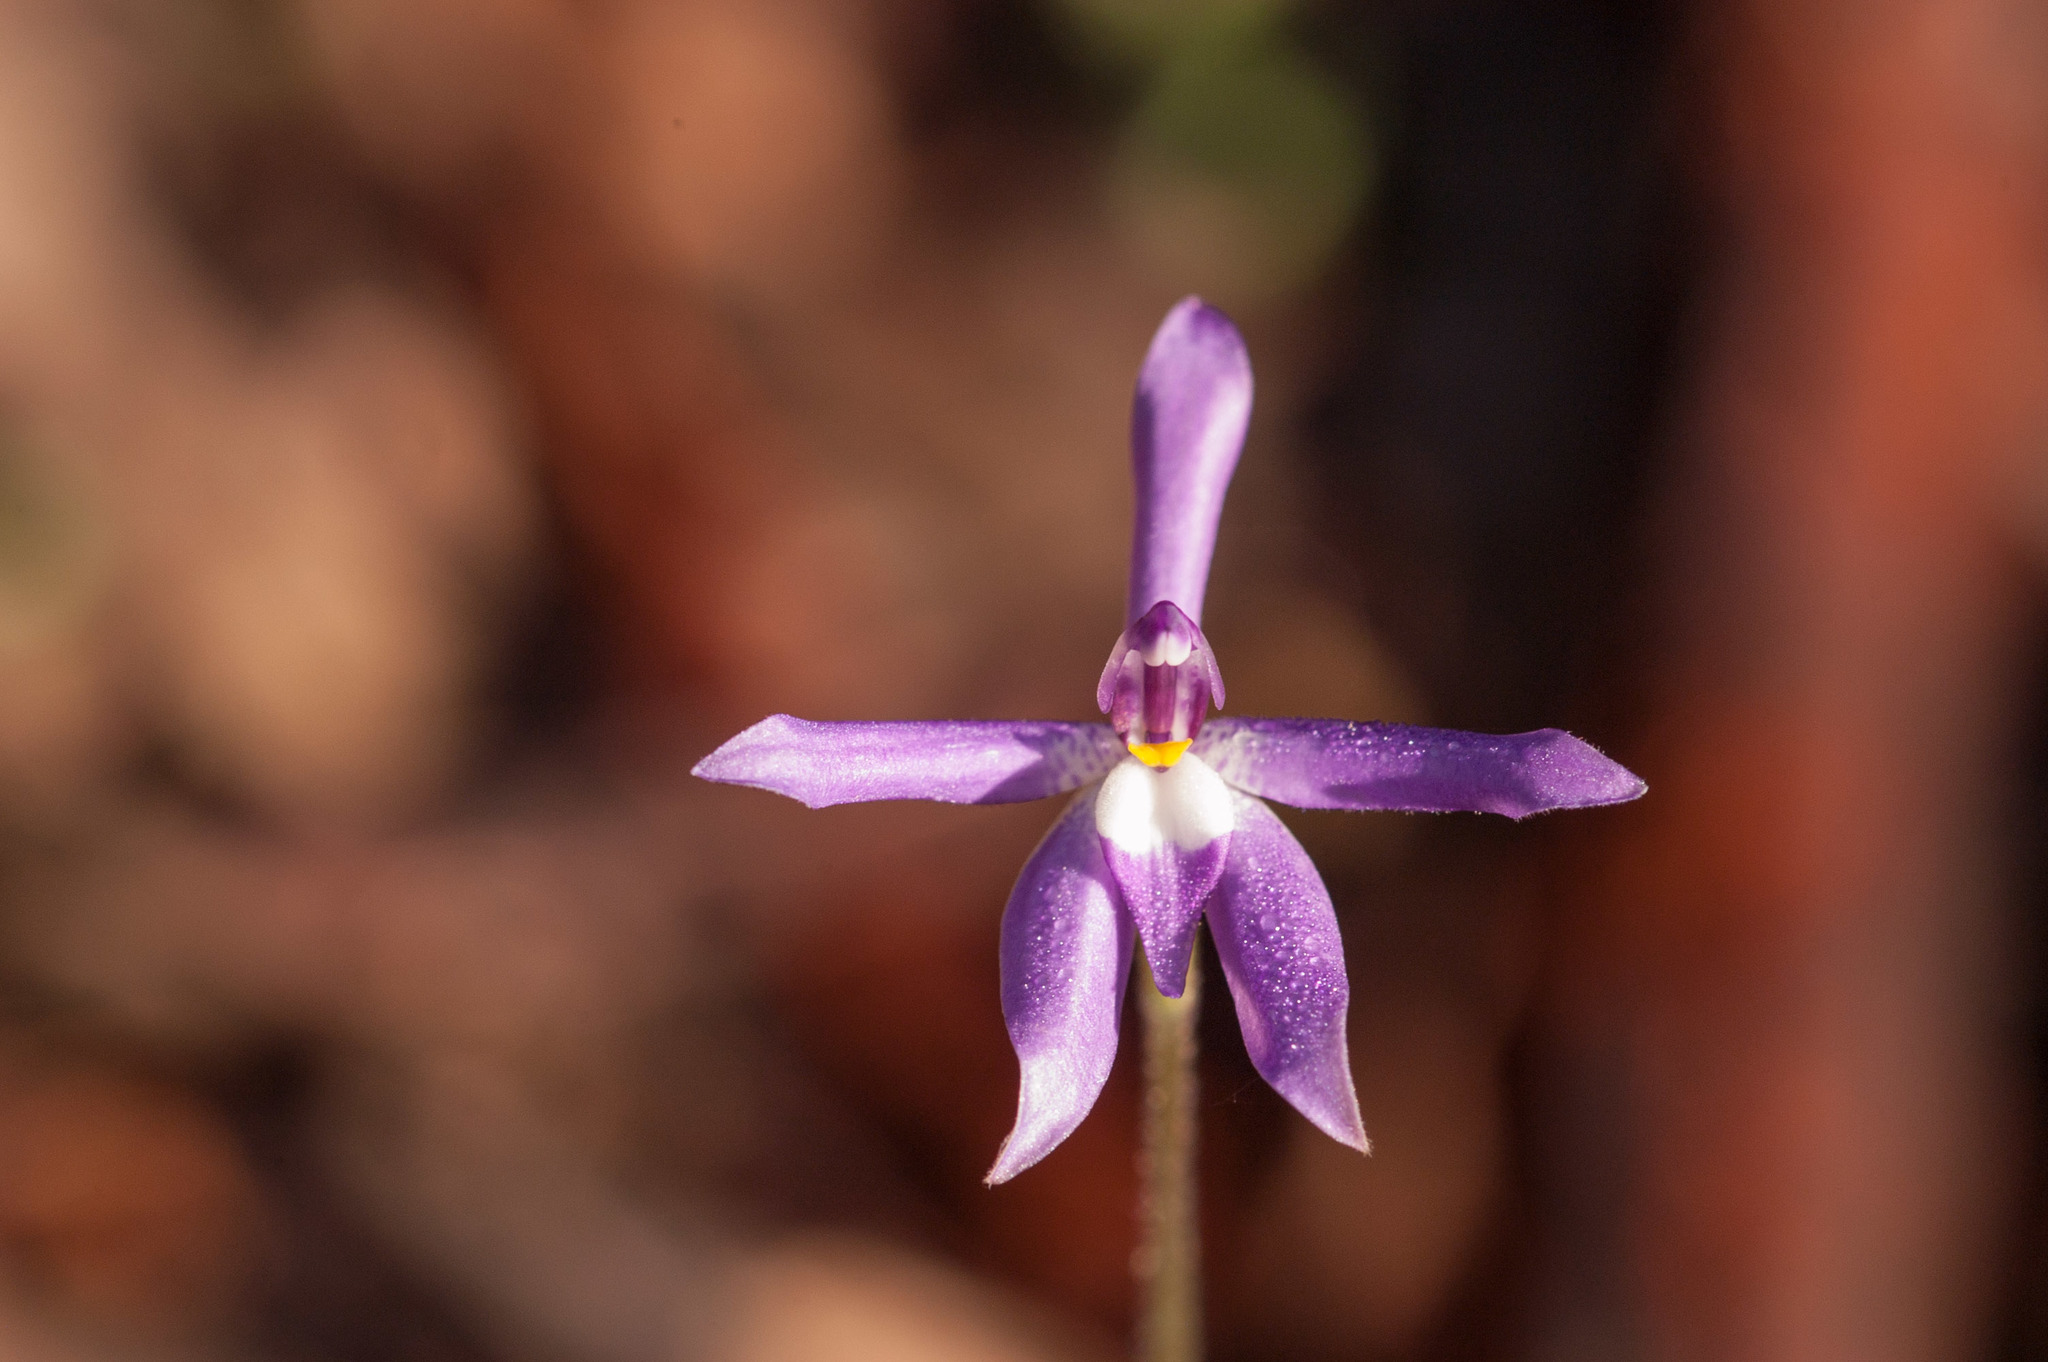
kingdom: Plantae
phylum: Tracheophyta
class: Liliopsida
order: Asparagales
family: Orchidaceae
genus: Caladenia
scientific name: Caladenia major
